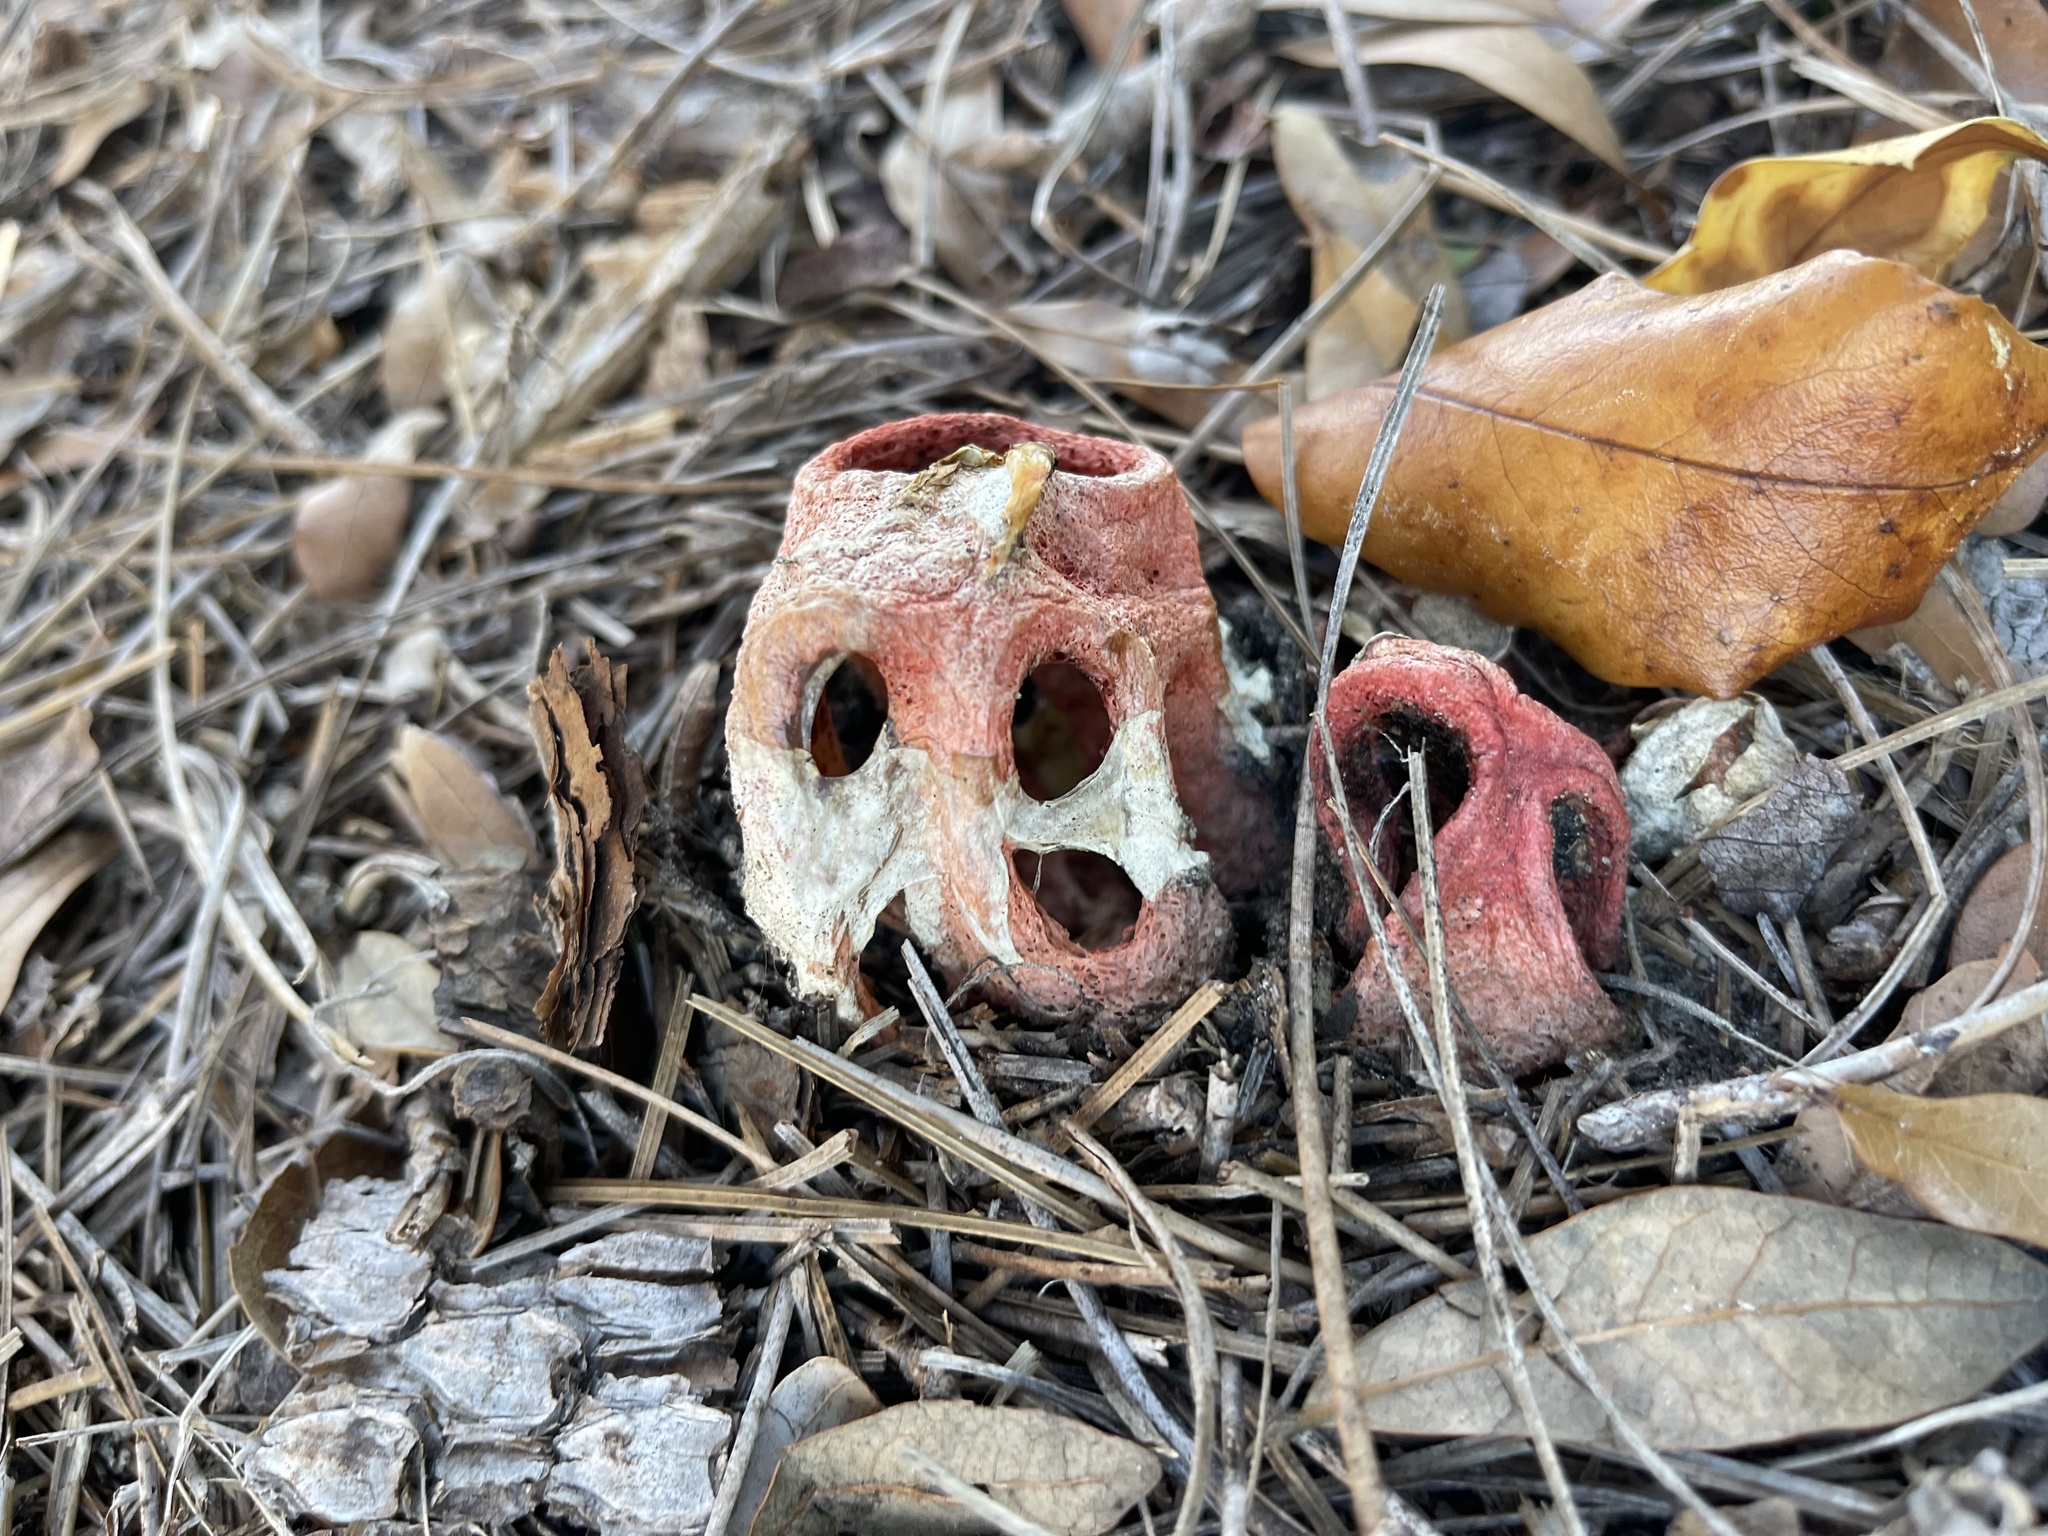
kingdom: Fungi
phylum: Basidiomycota
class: Agaricomycetes
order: Phallales
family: Phallaceae
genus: Clathrus
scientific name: Clathrus columnatus
